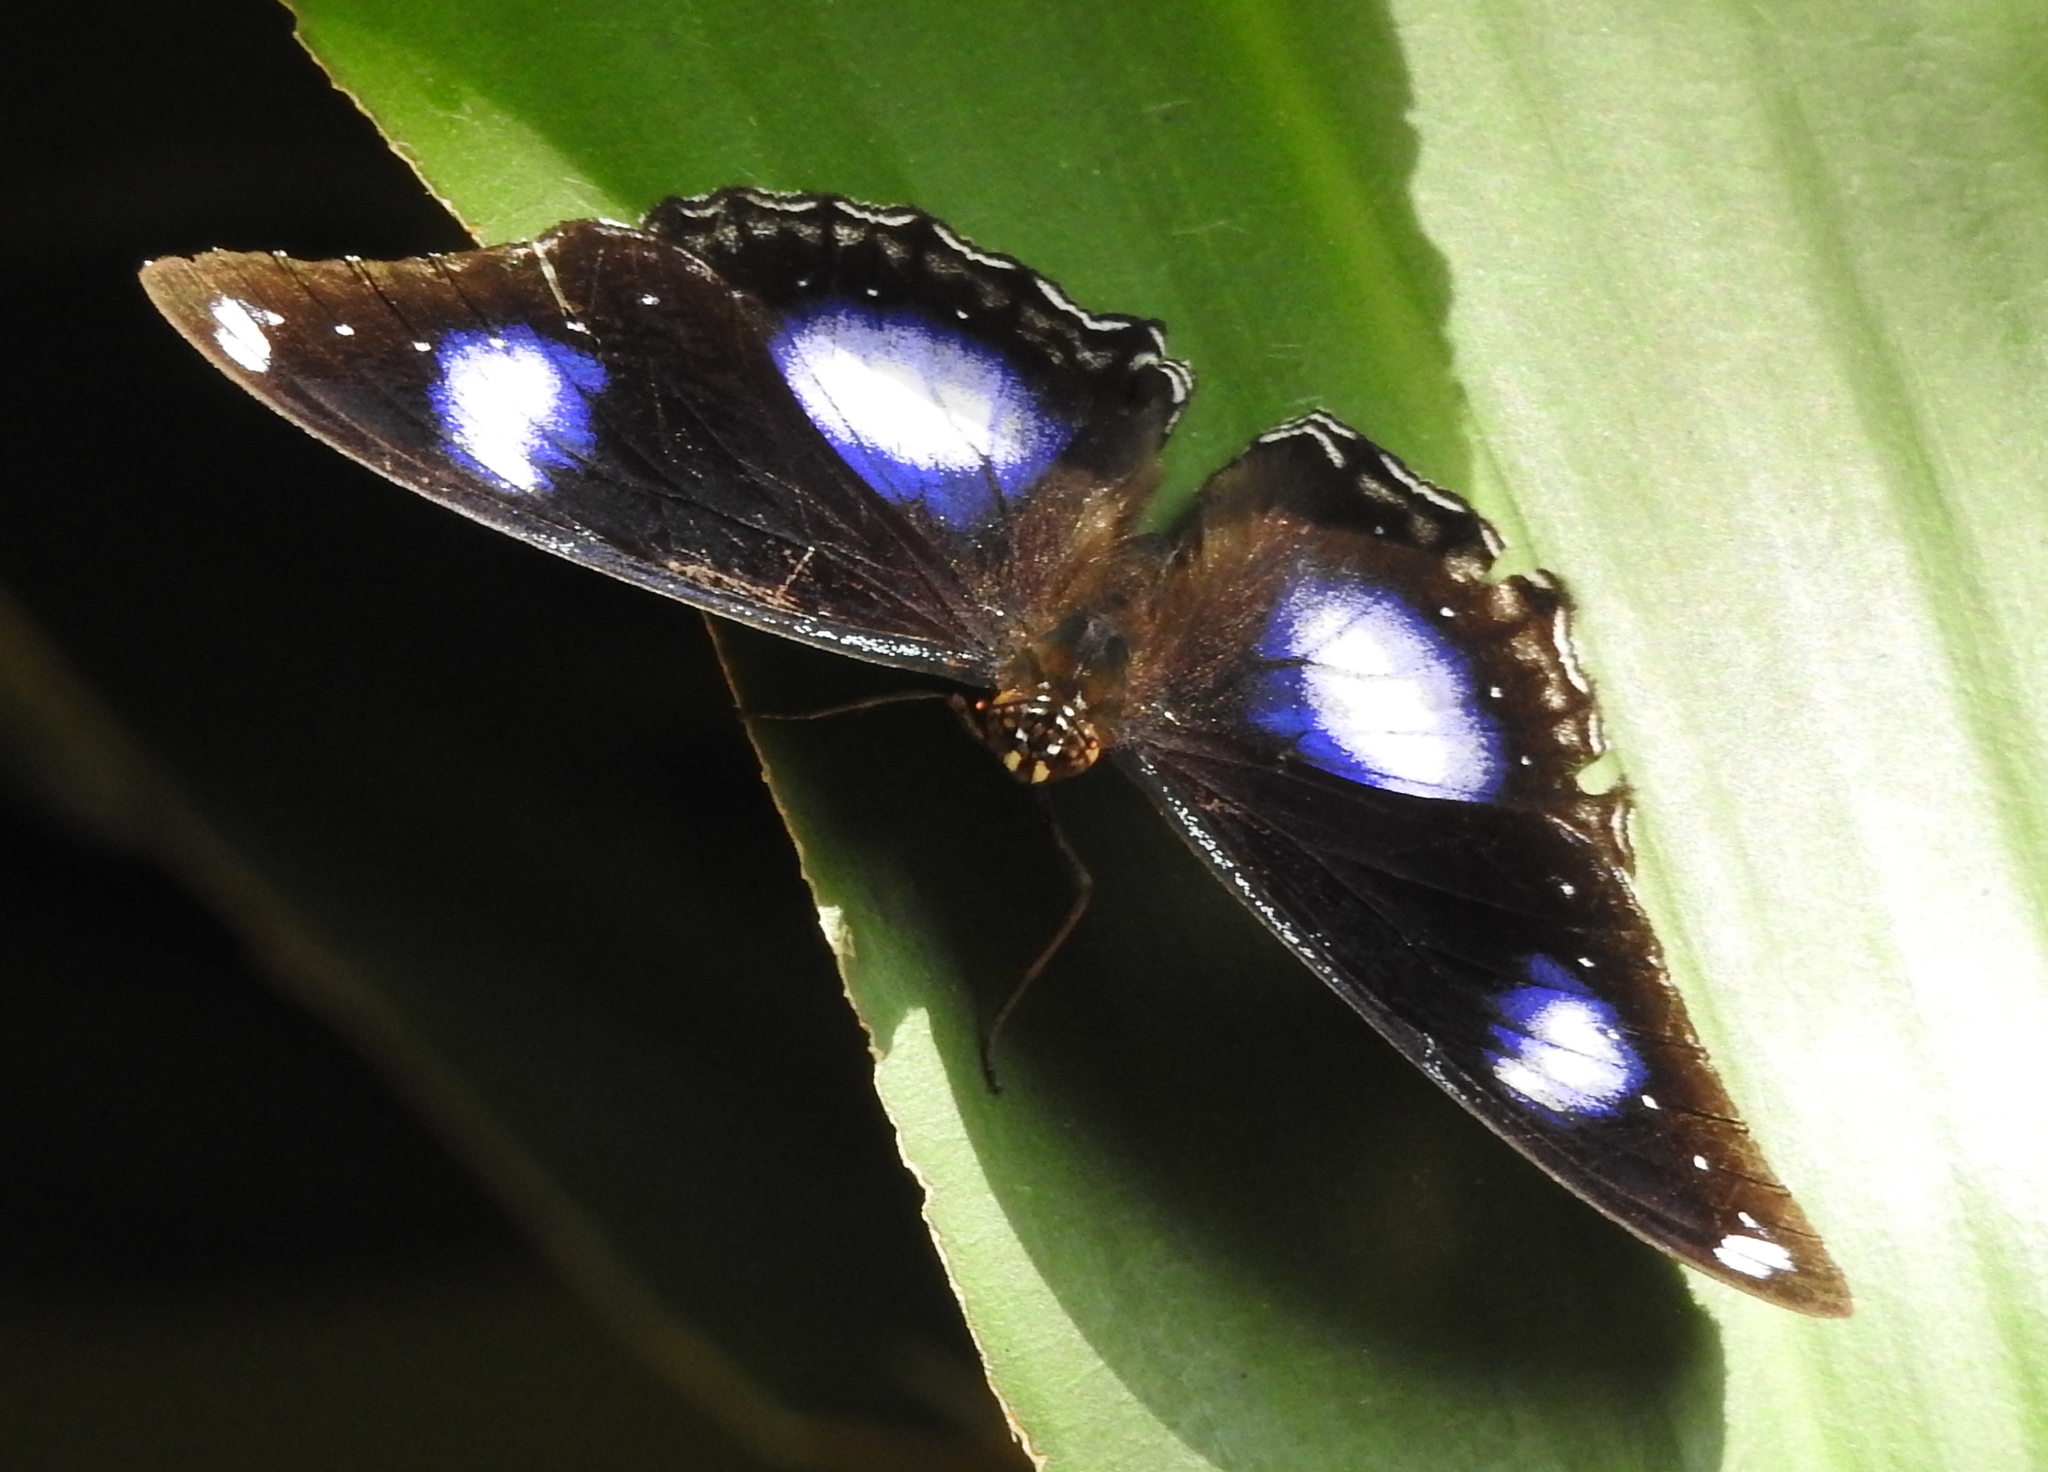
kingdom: Animalia
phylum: Arthropoda
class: Insecta
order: Lepidoptera
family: Nymphalidae
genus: Hypolimnas
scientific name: Hypolimnas bolina
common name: Great eggfly
